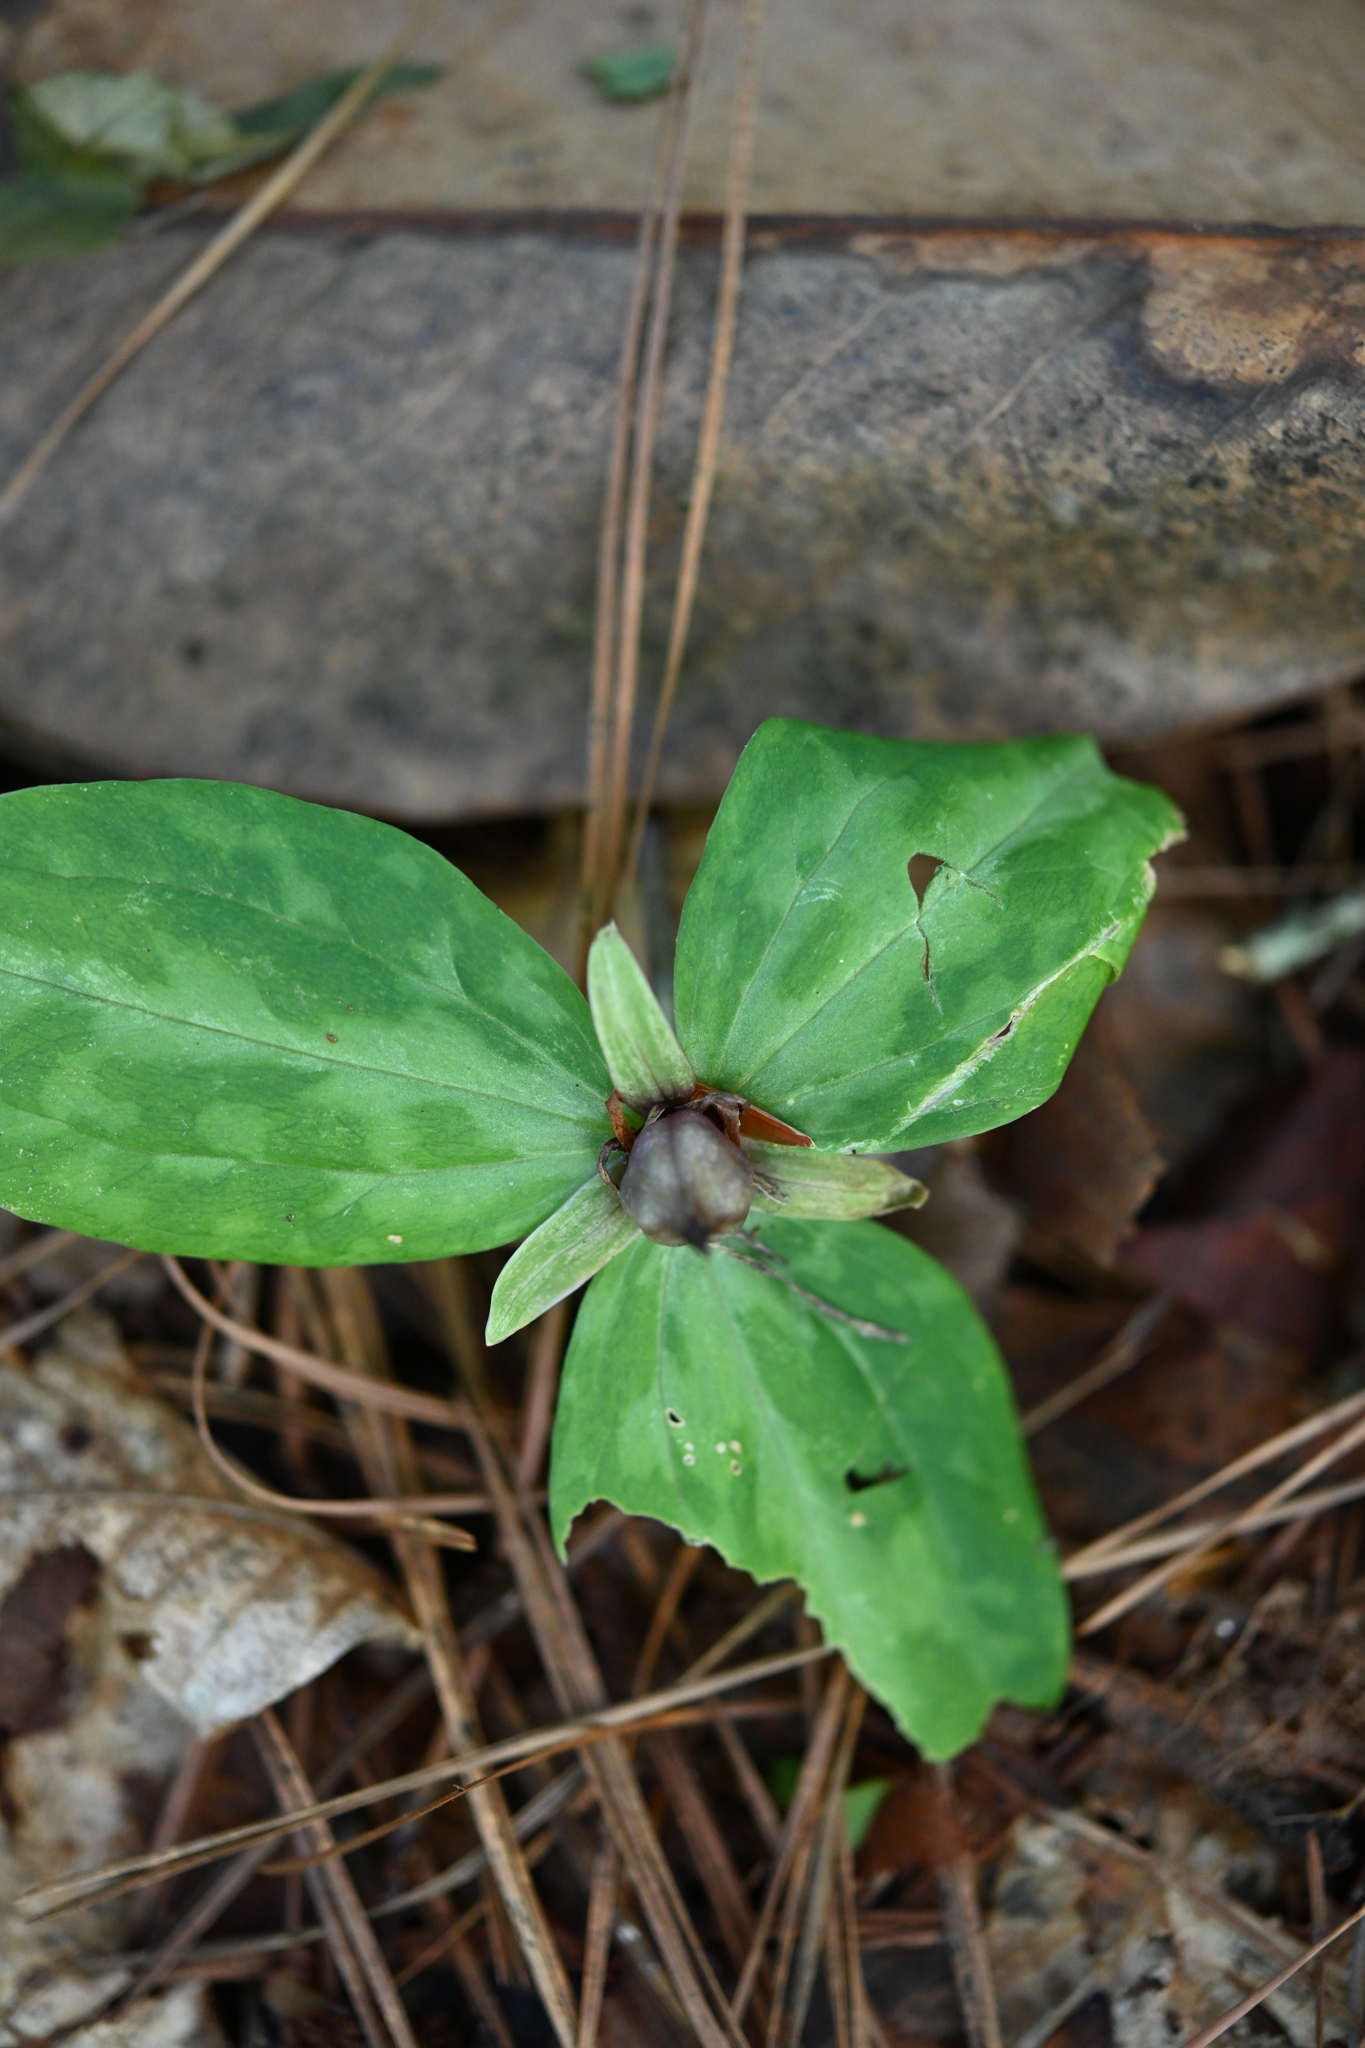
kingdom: Plantae
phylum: Tracheophyta
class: Liliopsida
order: Liliales
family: Melanthiaceae
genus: Trillium
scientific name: Trillium foetidissimum
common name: Mississippi river trillium
